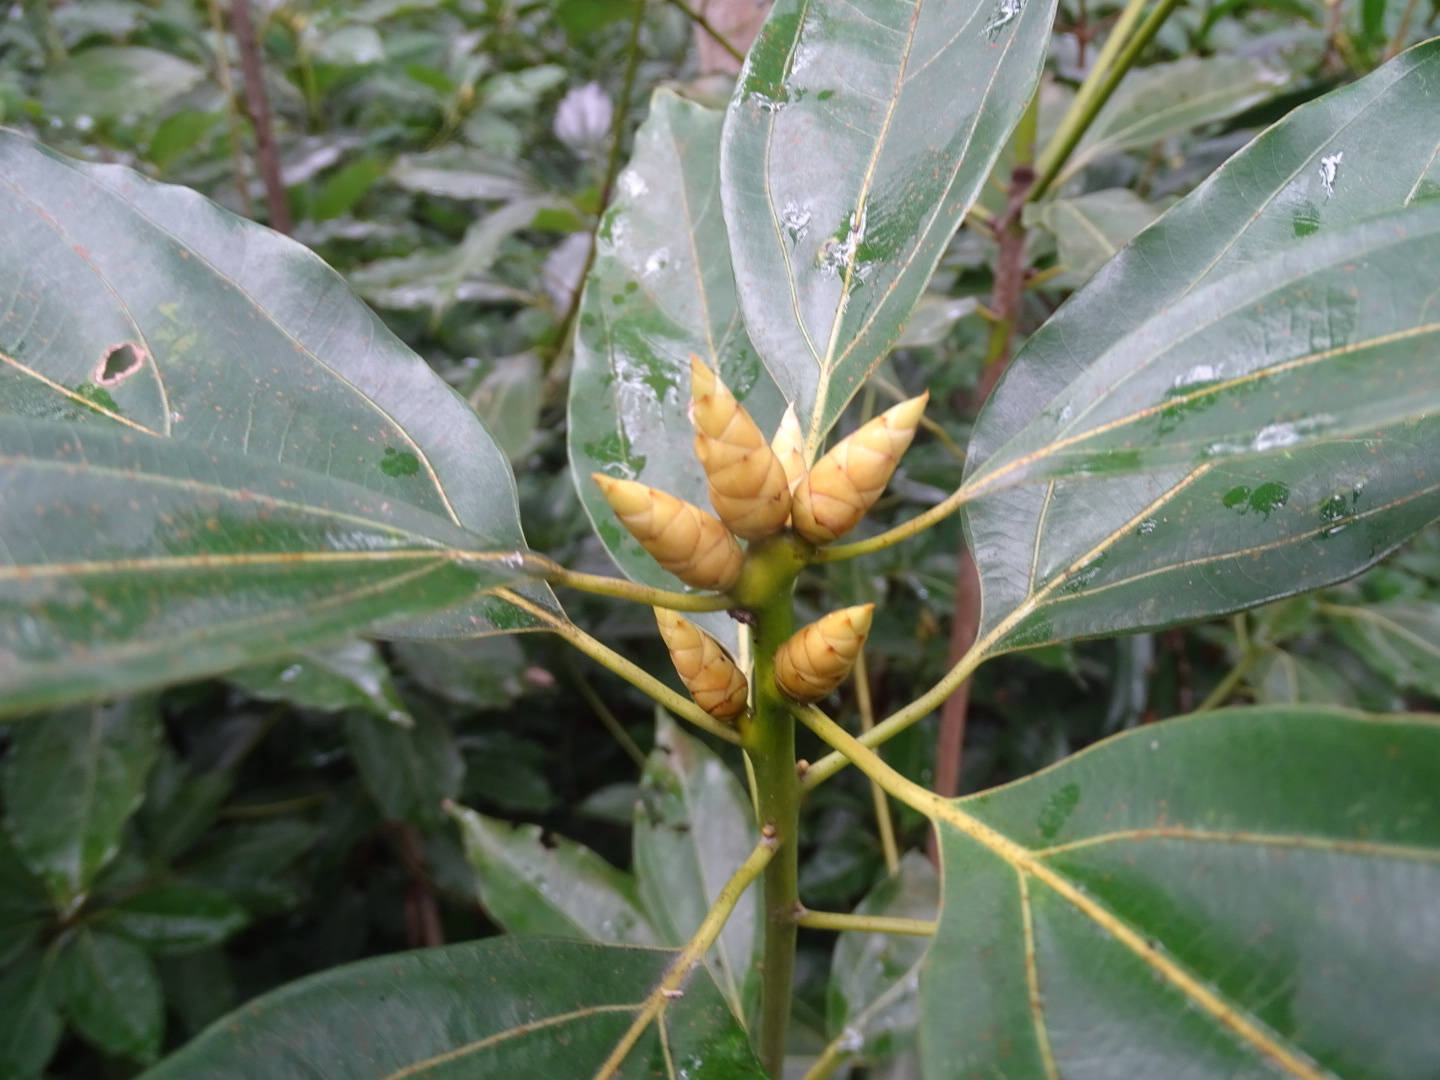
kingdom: Plantae
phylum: Tracheophyta
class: Magnoliopsida
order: Laurales
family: Lauraceae
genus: Neolitsea
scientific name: Neolitsea chuii
